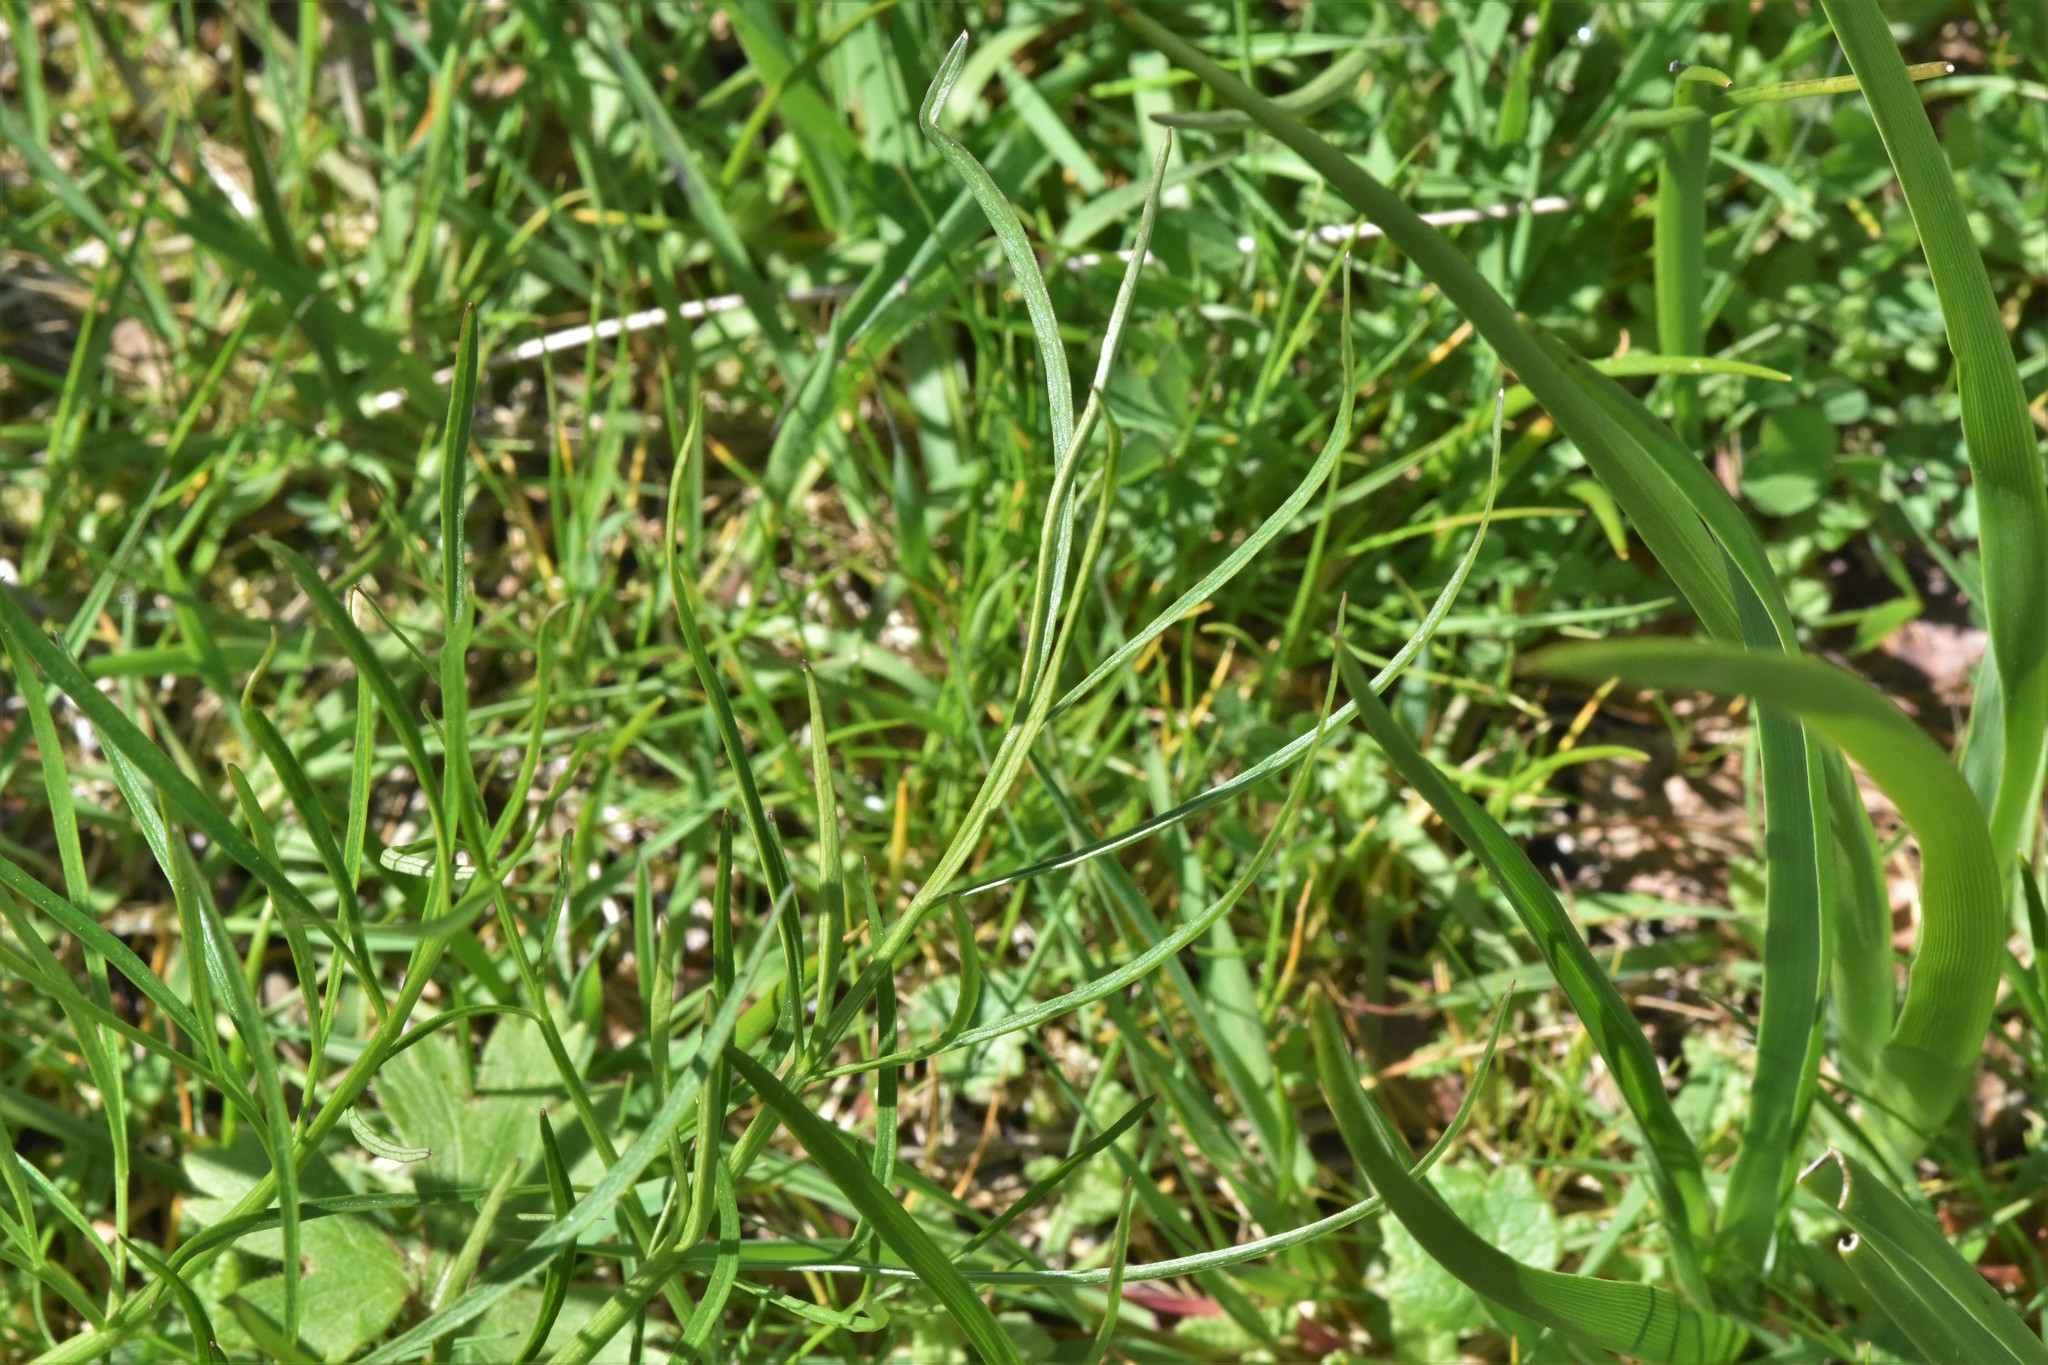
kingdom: Plantae
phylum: Tracheophyta
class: Magnoliopsida
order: Apiales
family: Apiaceae
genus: Perideridia
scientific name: Perideridia gairdneri
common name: False caraway
